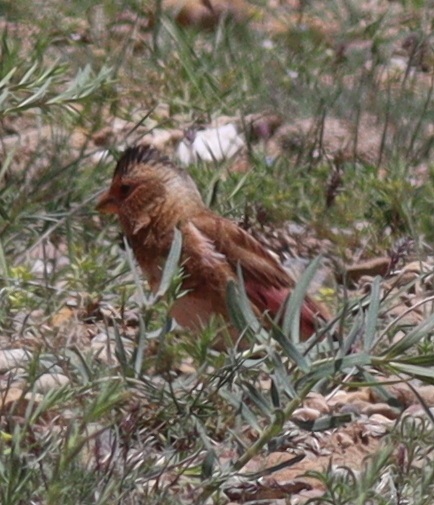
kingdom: Animalia
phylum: Chordata
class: Aves
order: Passeriformes
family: Fringillidae
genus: Rhodopechys
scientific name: Rhodopechys sanguineus
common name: Crimson-winged finch
